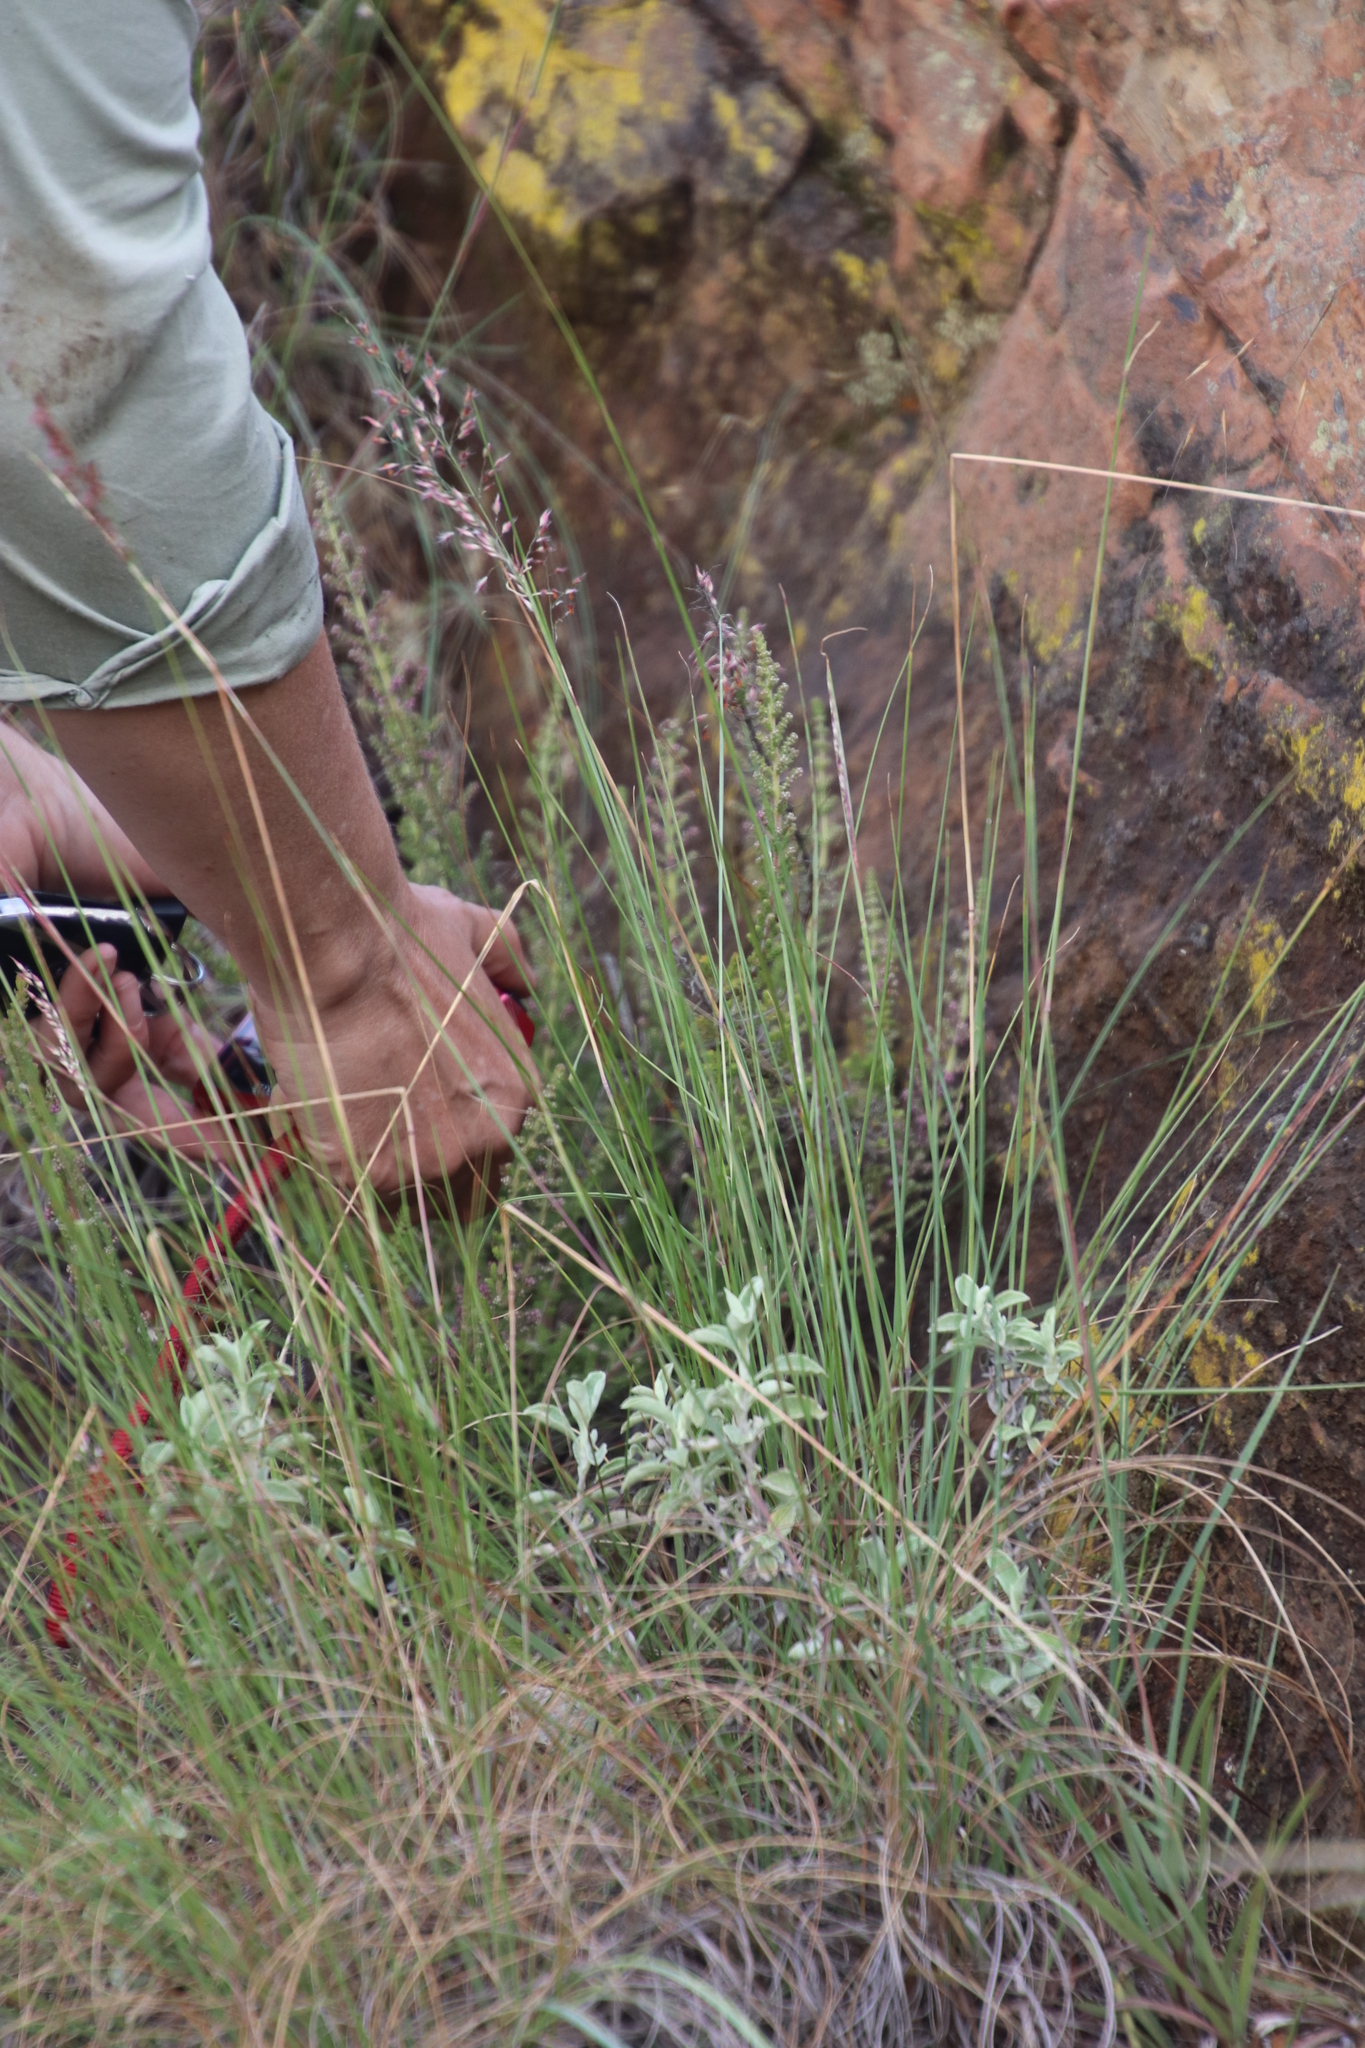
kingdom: Plantae
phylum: Tracheophyta
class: Magnoliopsida
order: Ericales
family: Ericaceae
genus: Erica
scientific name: Erica woodii
